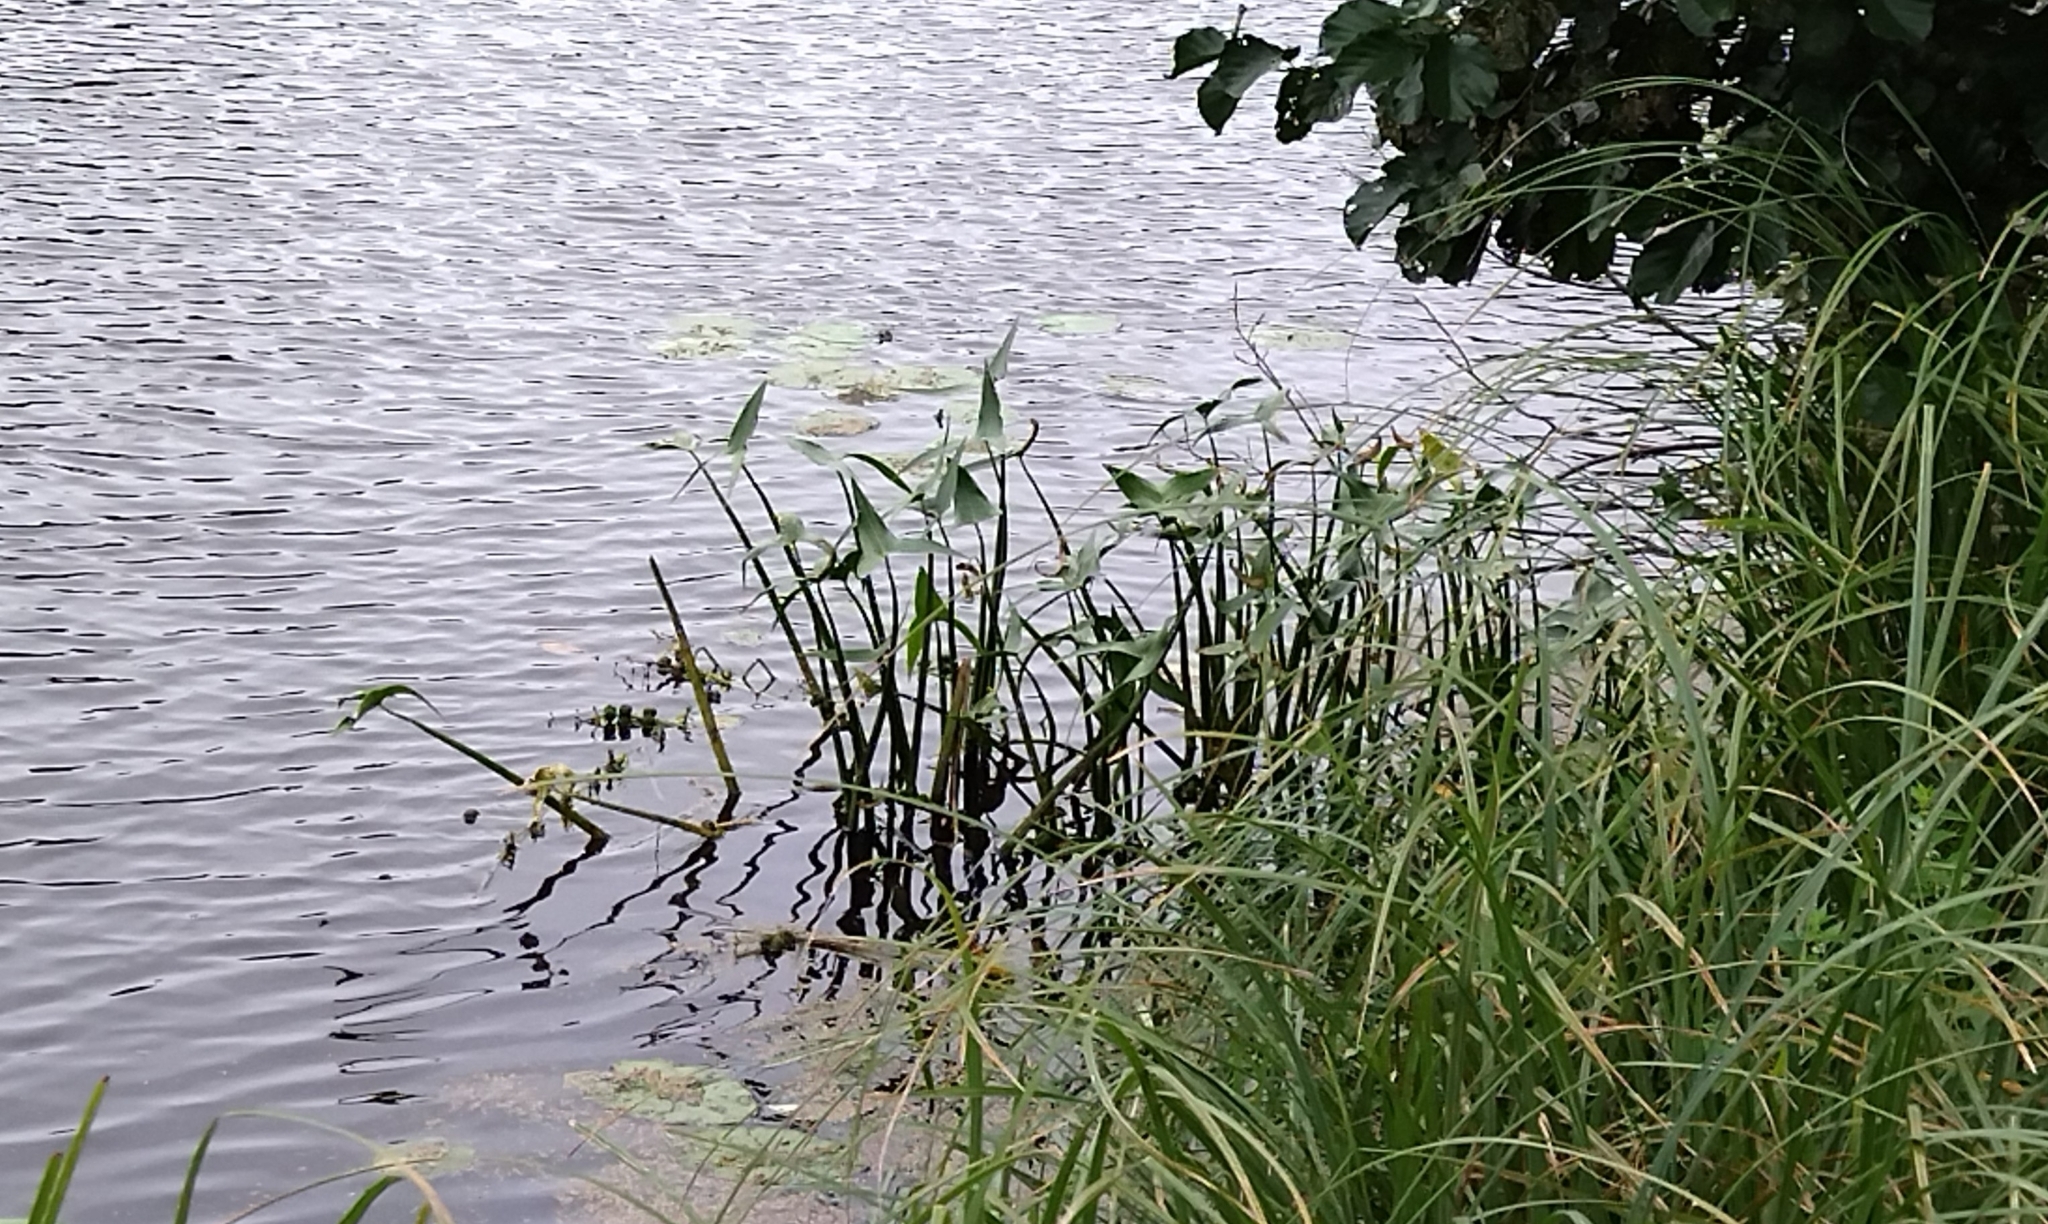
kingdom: Plantae
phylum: Tracheophyta
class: Liliopsida
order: Alismatales
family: Alismataceae
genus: Sagittaria
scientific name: Sagittaria sagittifolia
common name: Arrowhead
